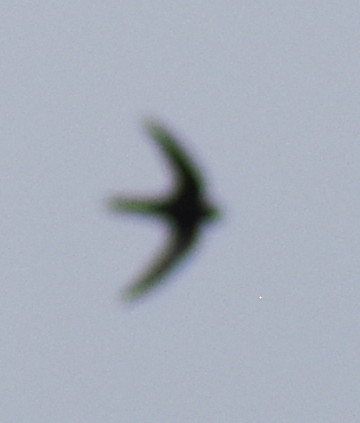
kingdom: Animalia
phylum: Chordata
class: Aves
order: Apodiformes
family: Apodidae
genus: Apus
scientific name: Apus apus
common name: Common swift
